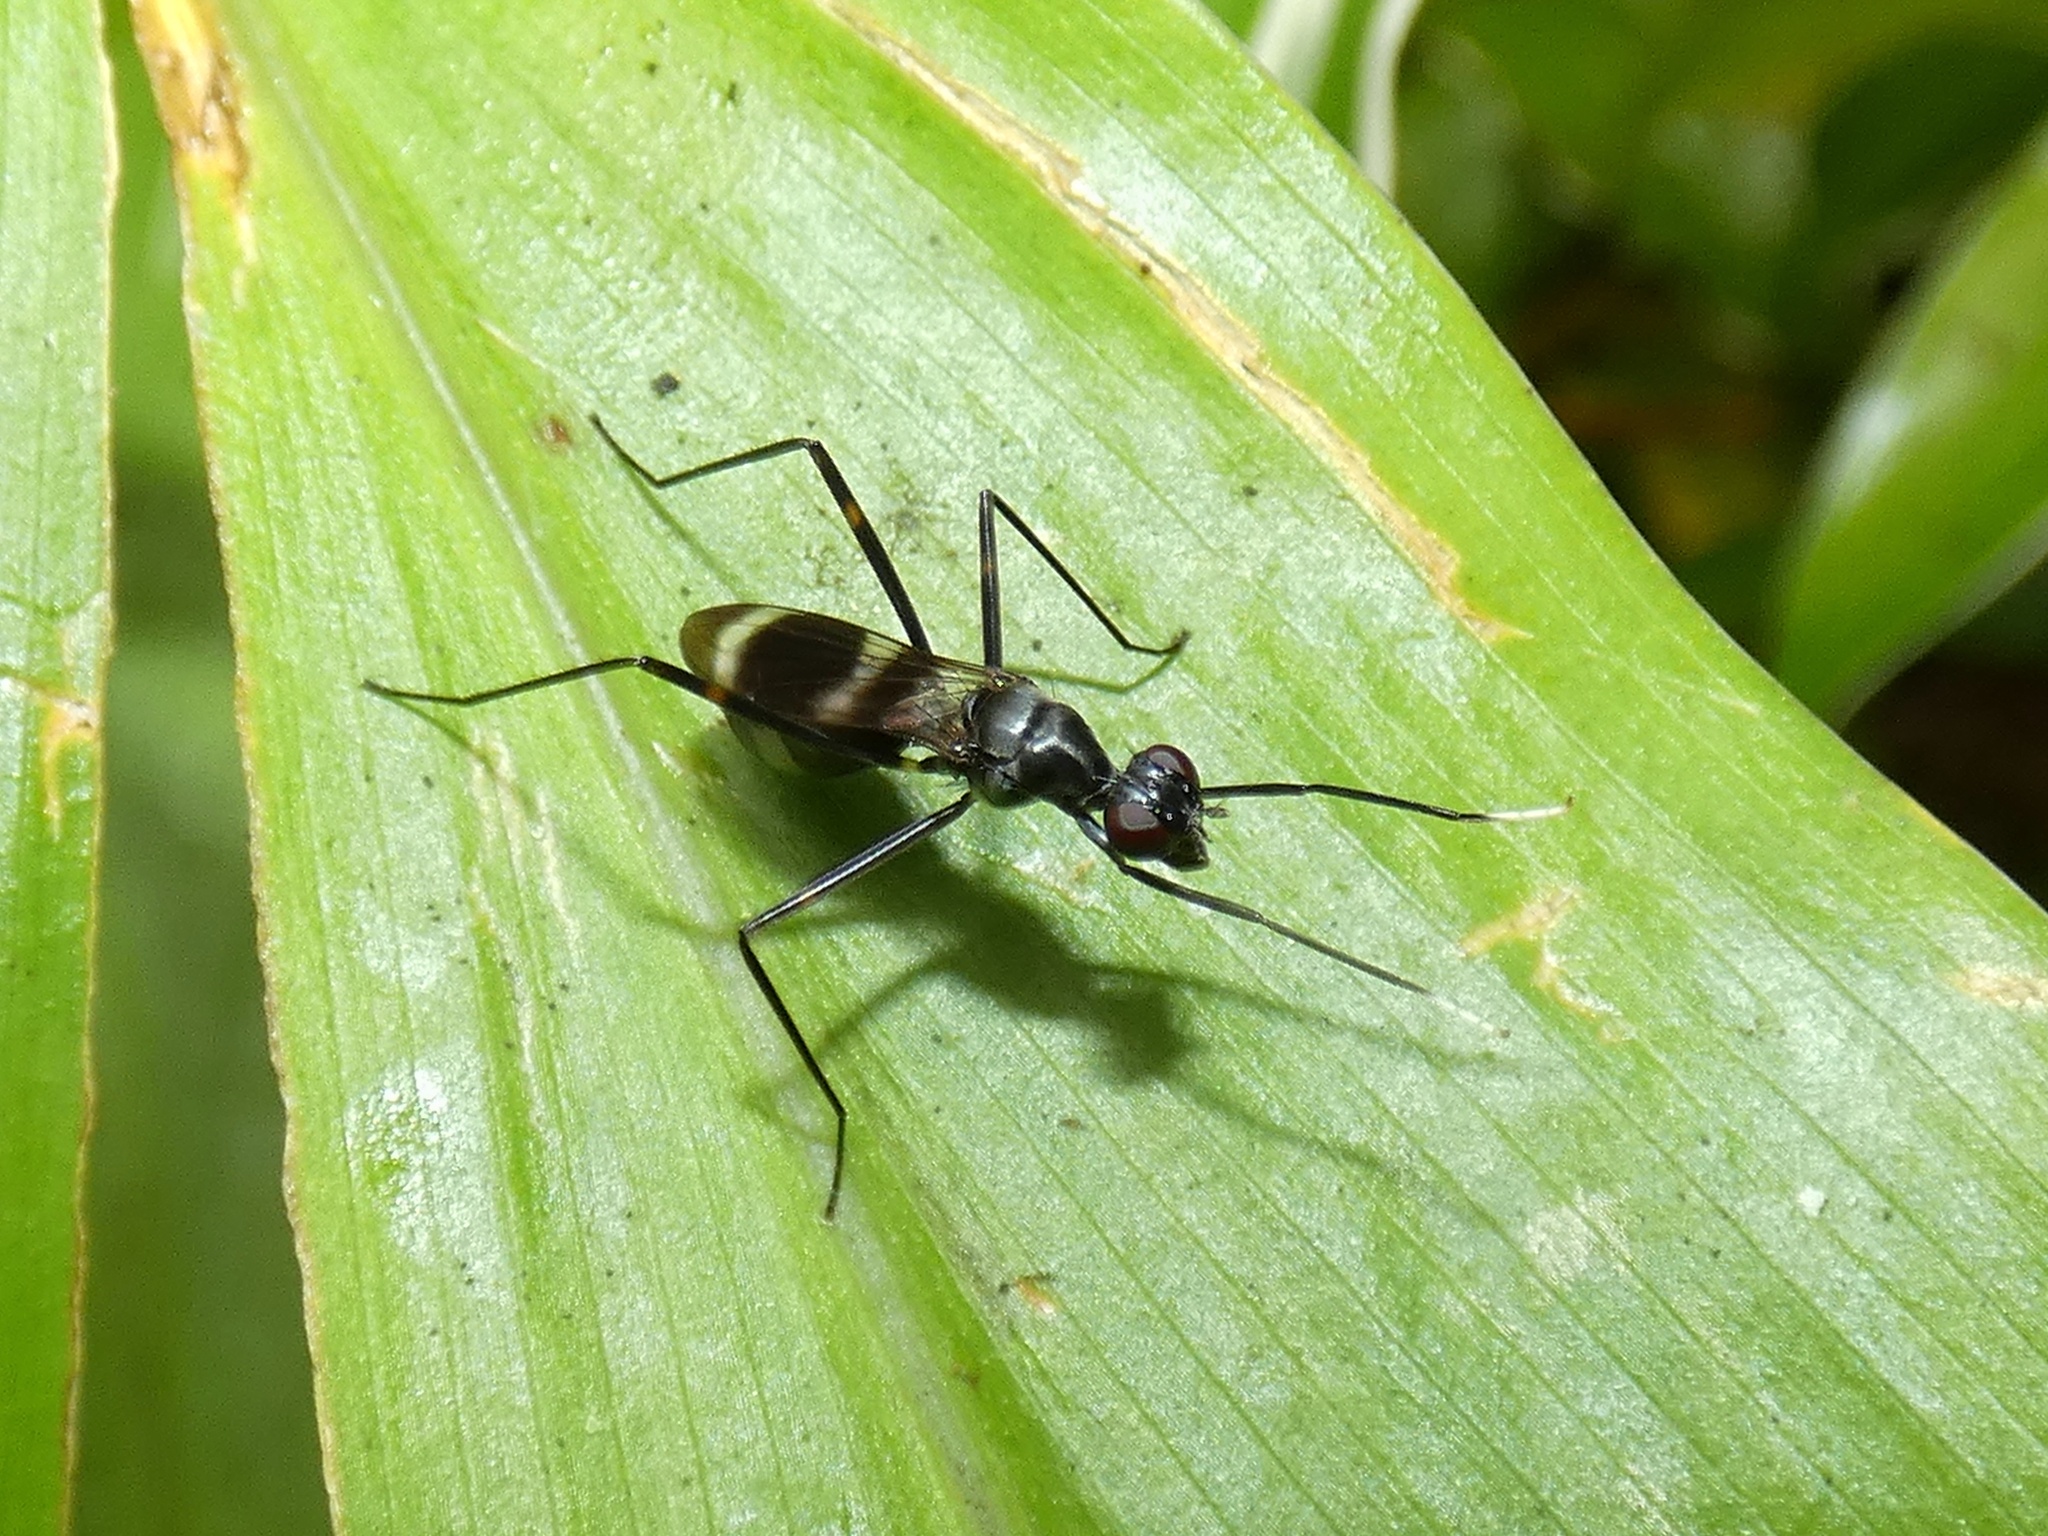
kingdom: Animalia
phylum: Arthropoda
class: Insecta
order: Diptera
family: Micropezidae
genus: Mimegralla
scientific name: Mimegralla australica
